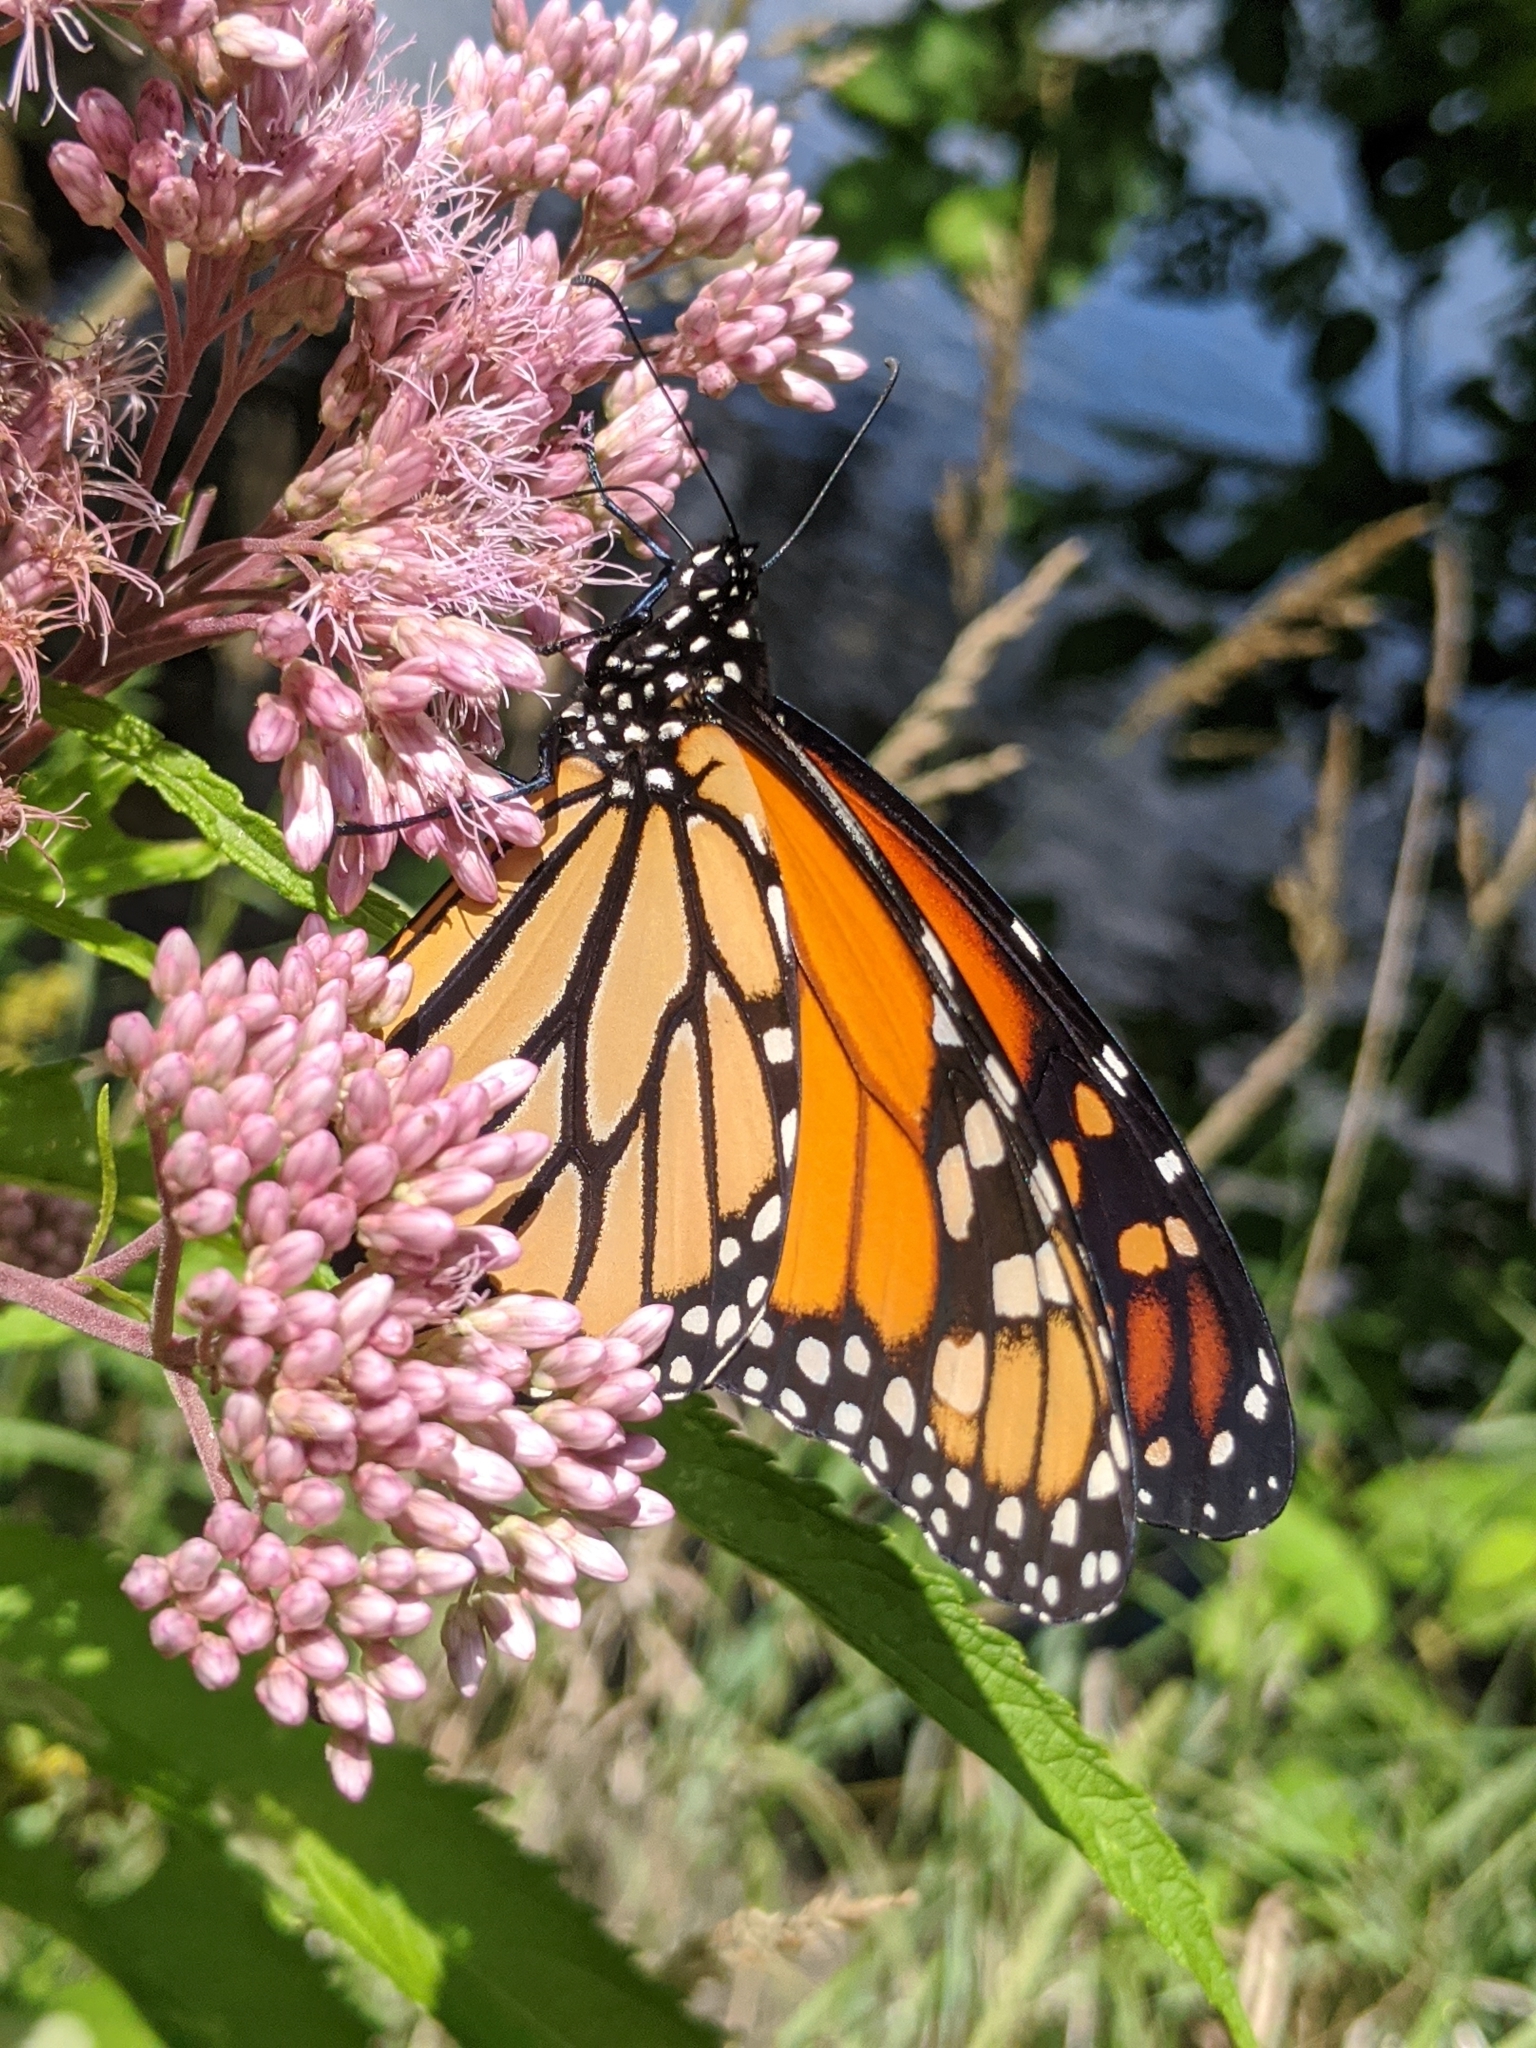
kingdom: Animalia
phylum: Arthropoda
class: Insecta
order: Lepidoptera
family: Nymphalidae
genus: Danaus
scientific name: Danaus plexippus
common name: Monarch
